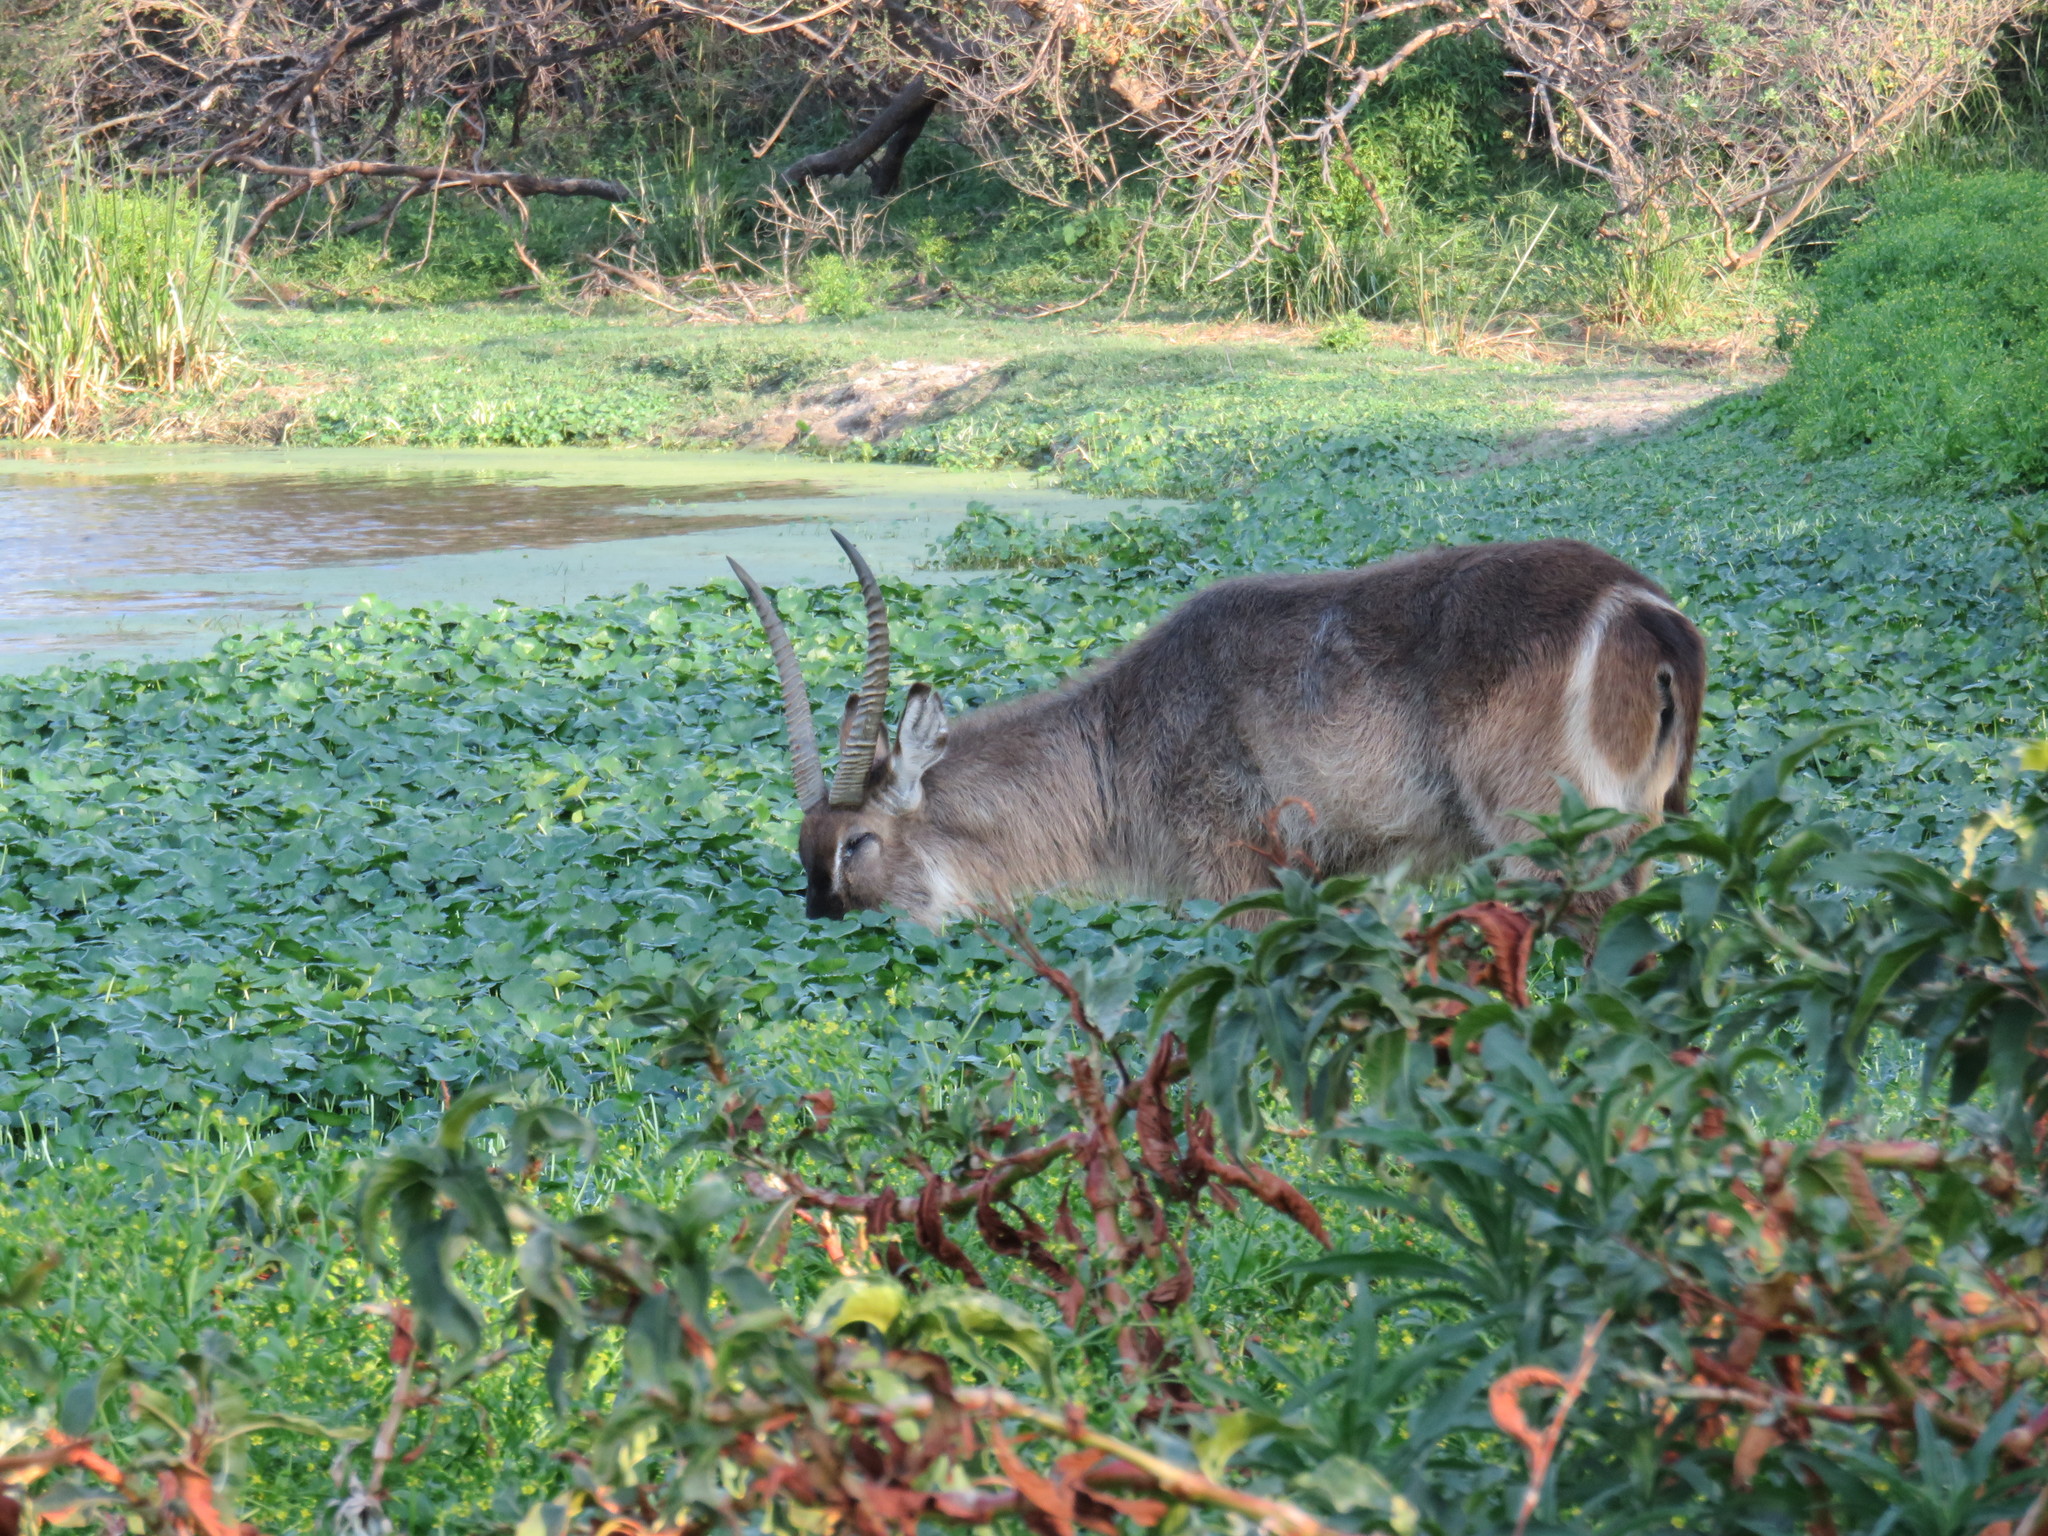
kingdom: Animalia
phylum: Chordata
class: Mammalia
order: Artiodactyla
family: Bovidae
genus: Kobus
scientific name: Kobus ellipsiprymnus
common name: Waterbuck
